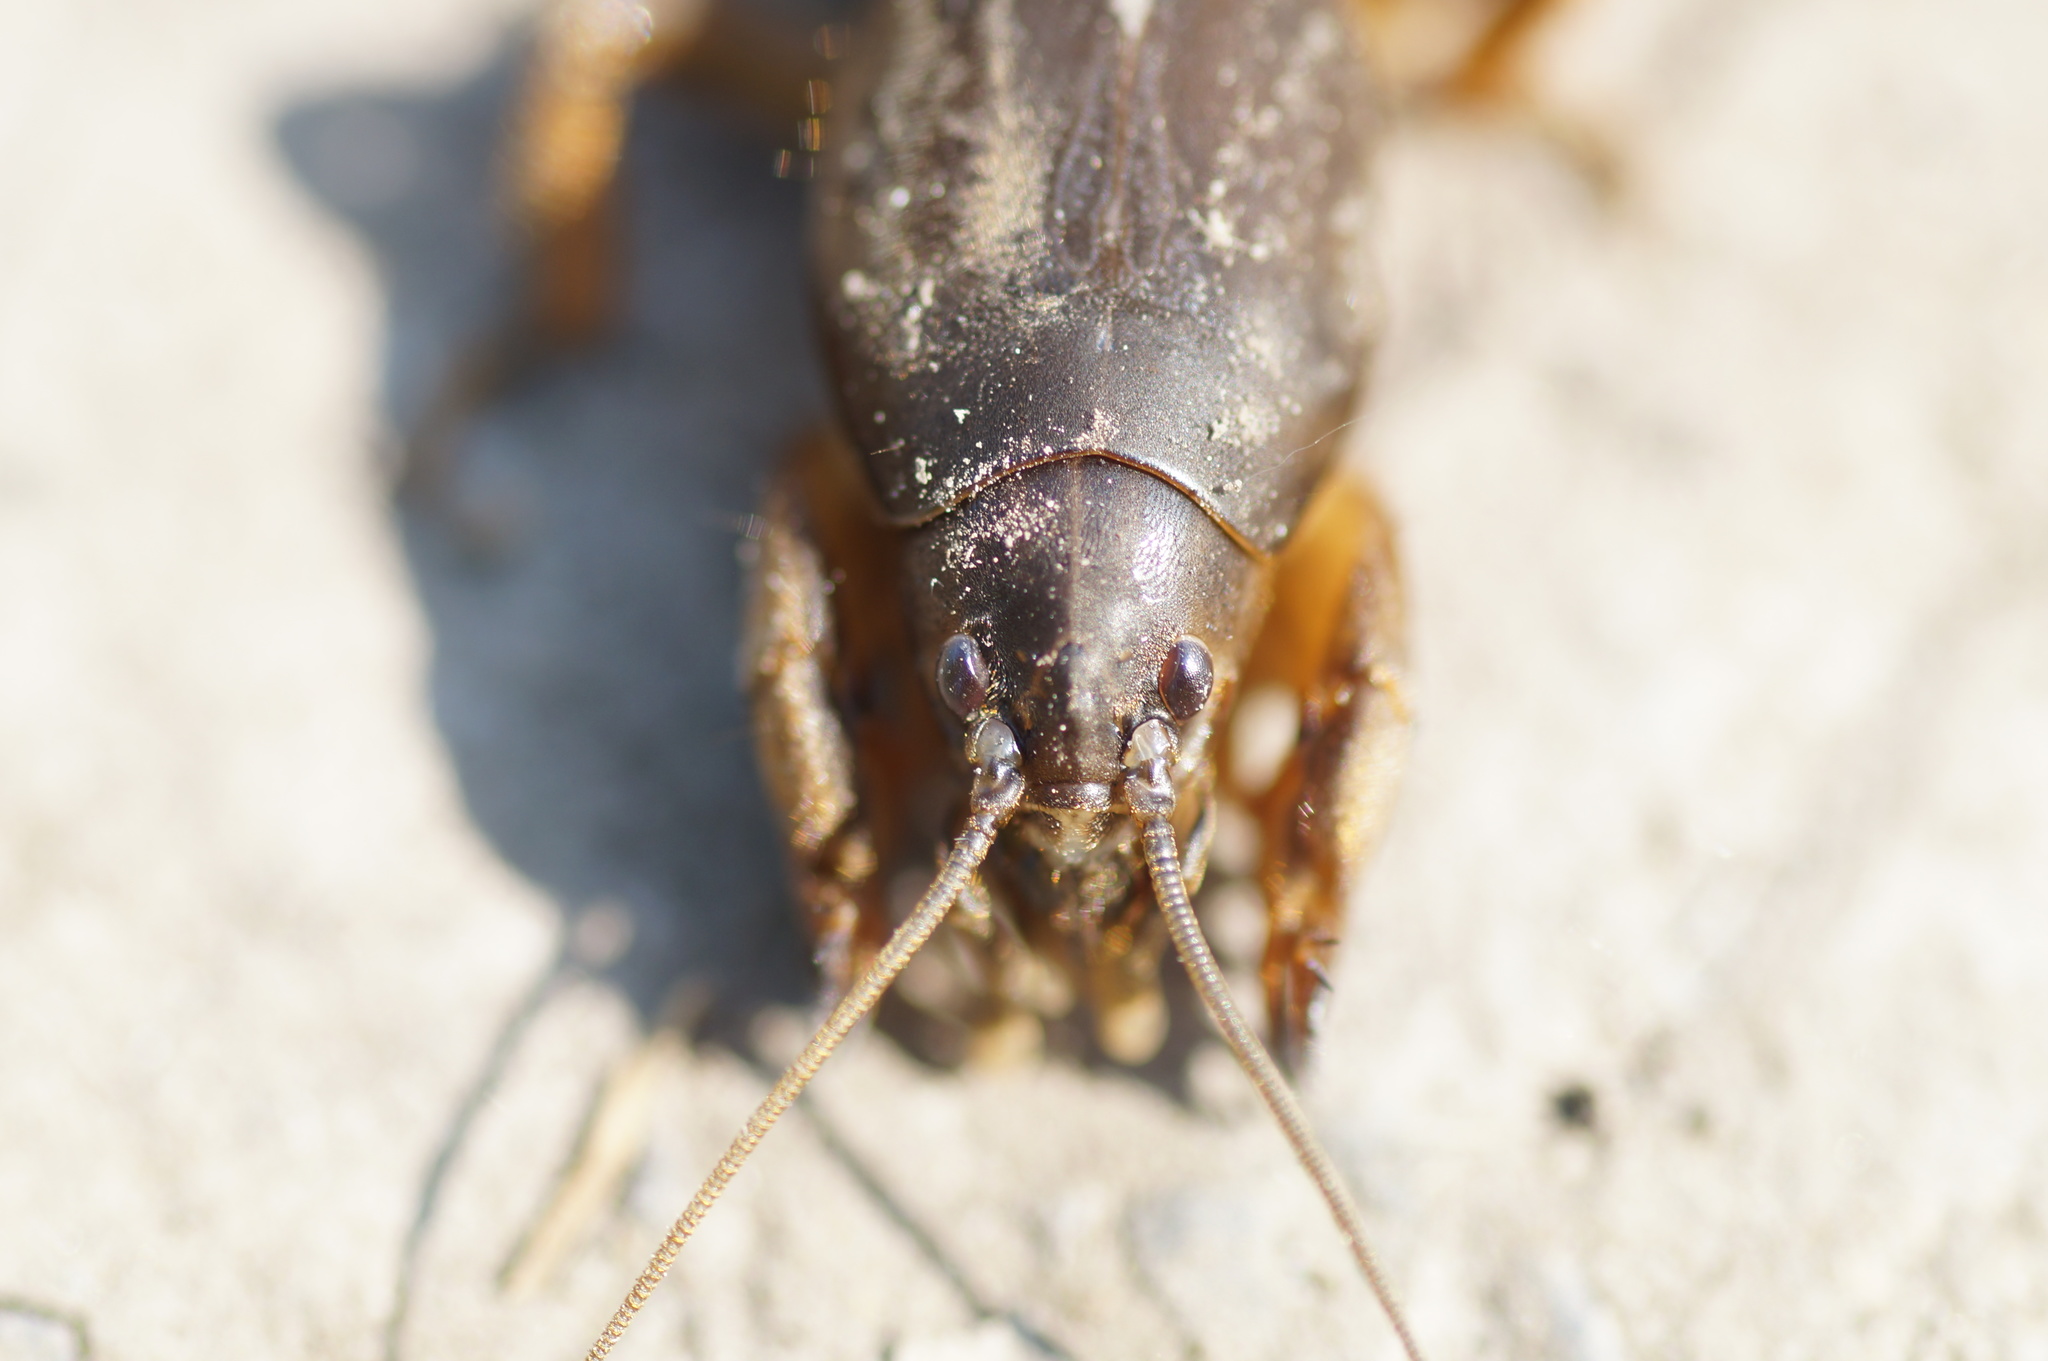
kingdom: Animalia
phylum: Arthropoda
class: Insecta
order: Orthoptera
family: Gryllotalpidae
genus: Gryllotalpa
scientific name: Gryllotalpa gryllotalpa
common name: European mole cricket
